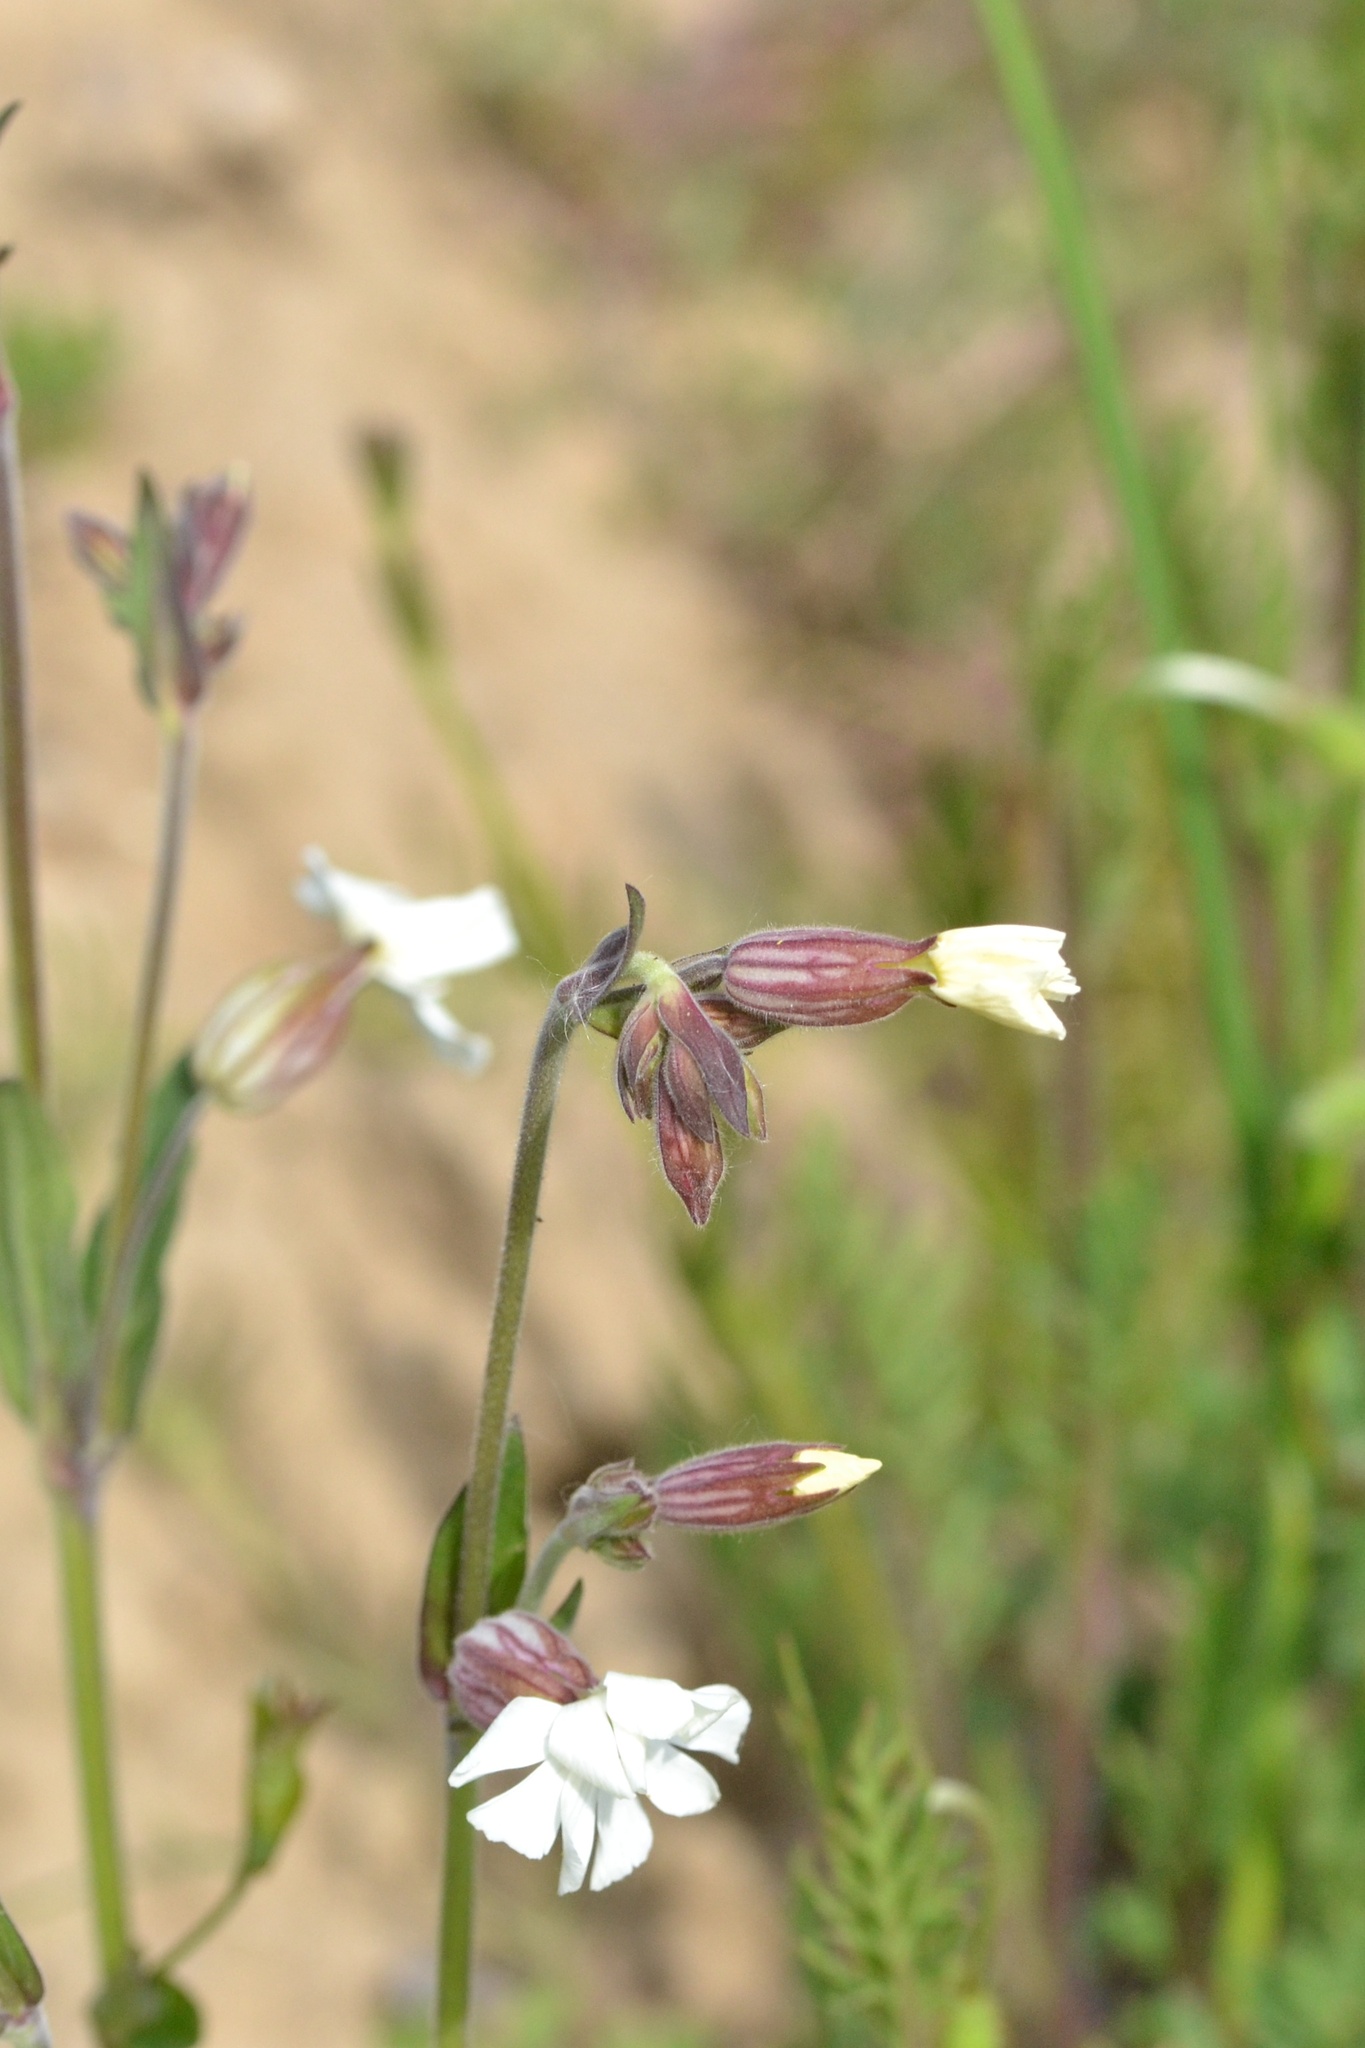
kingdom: Plantae
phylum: Tracheophyta
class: Magnoliopsida
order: Caryophyllales
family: Caryophyllaceae
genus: Silene
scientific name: Silene latifolia
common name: White campion
